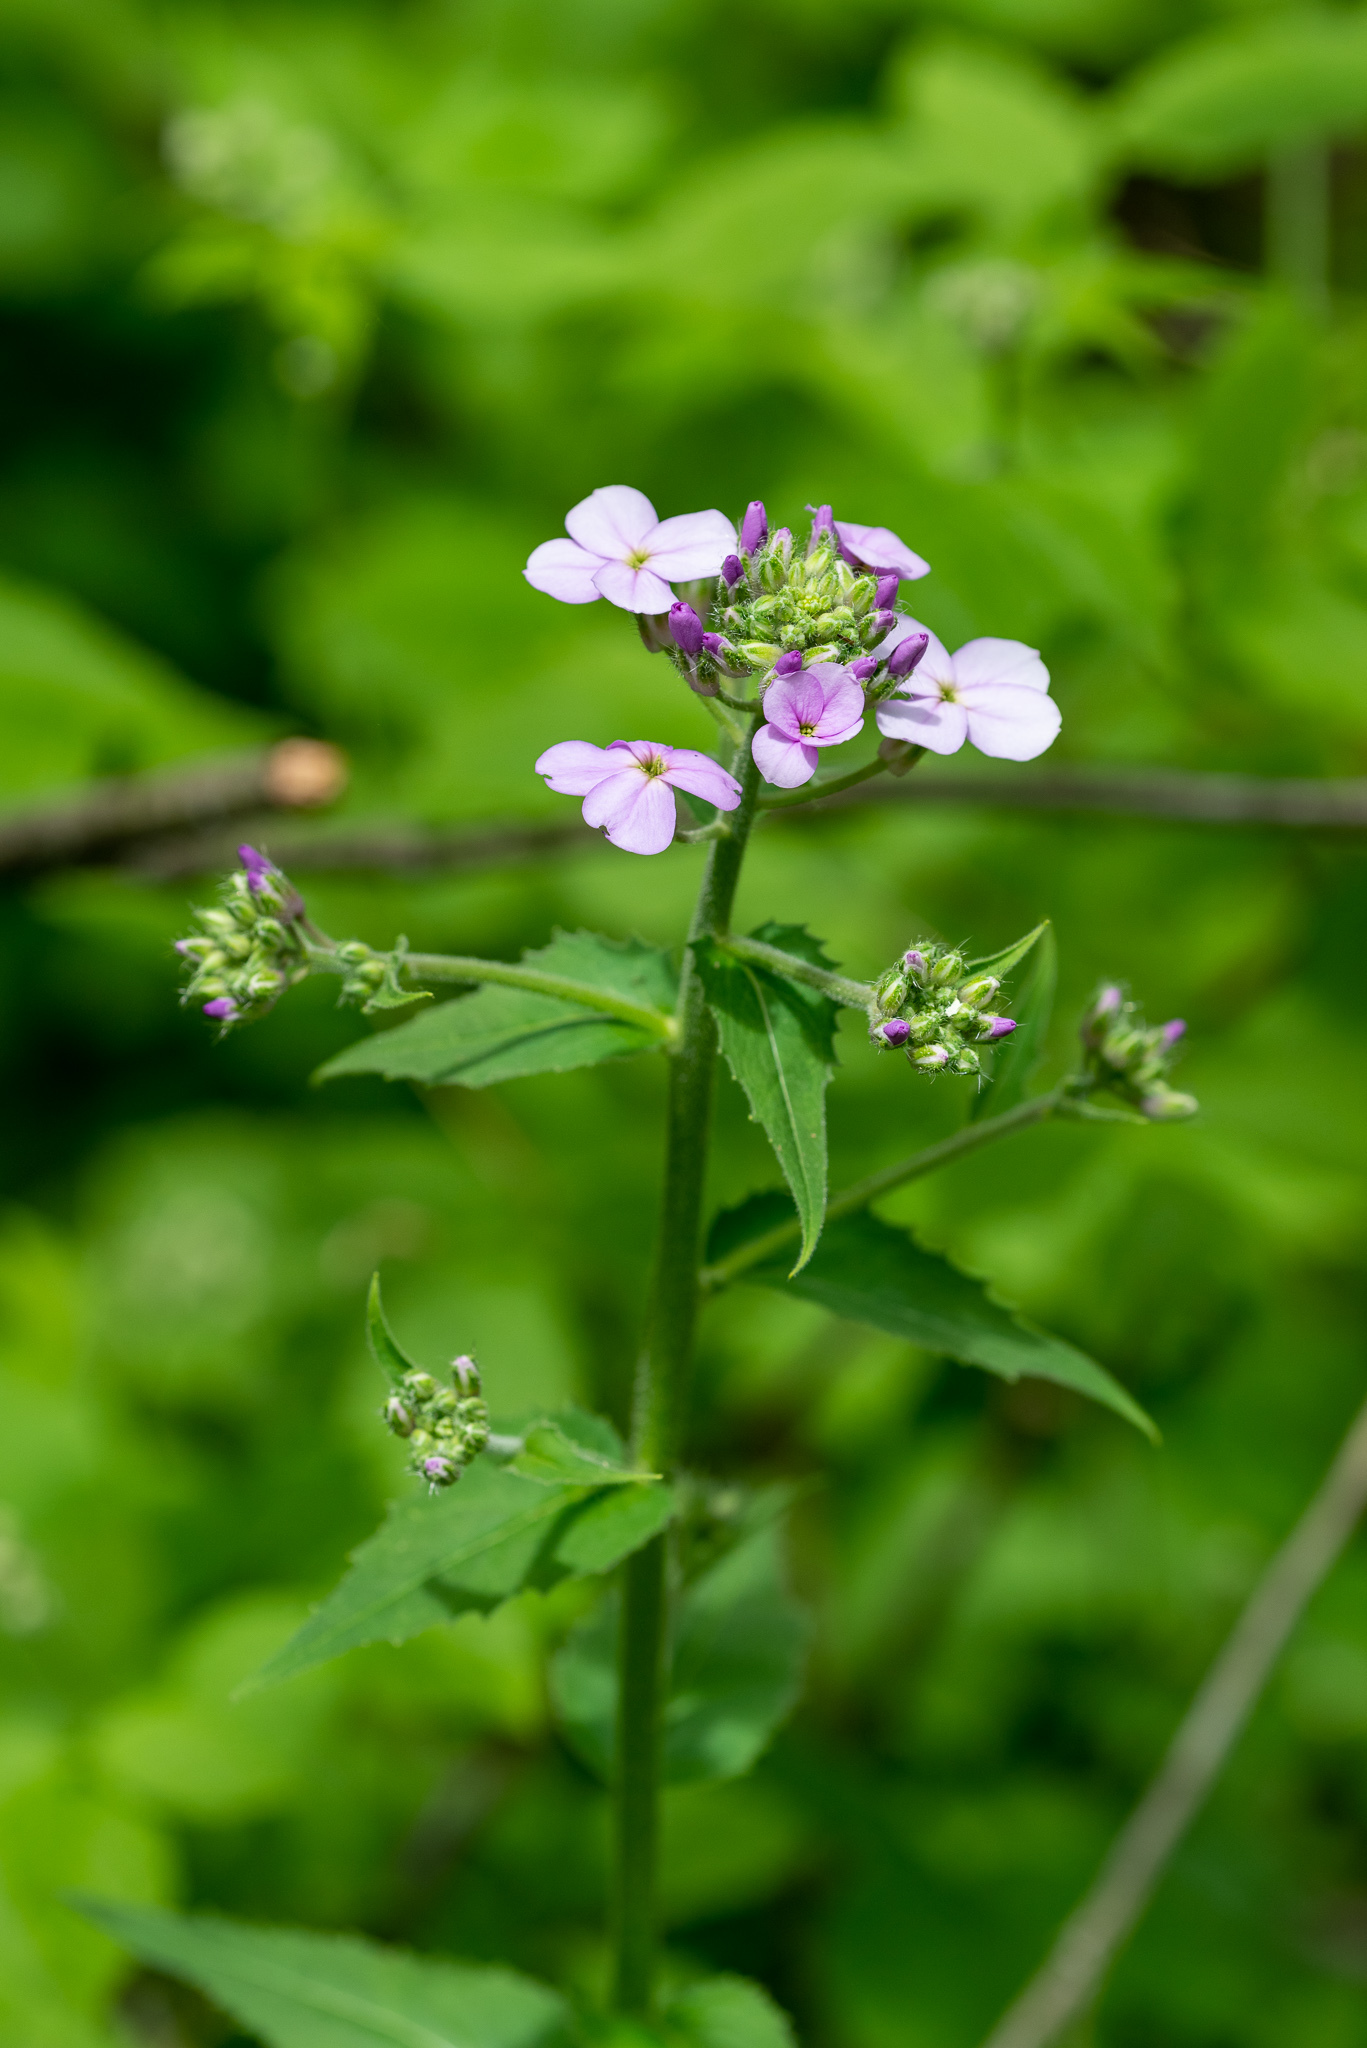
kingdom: Plantae
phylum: Tracheophyta
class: Magnoliopsida
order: Brassicales
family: Brassicaceae
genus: Hesperis
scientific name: Hesperis matronalis
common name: Dame's-violet
